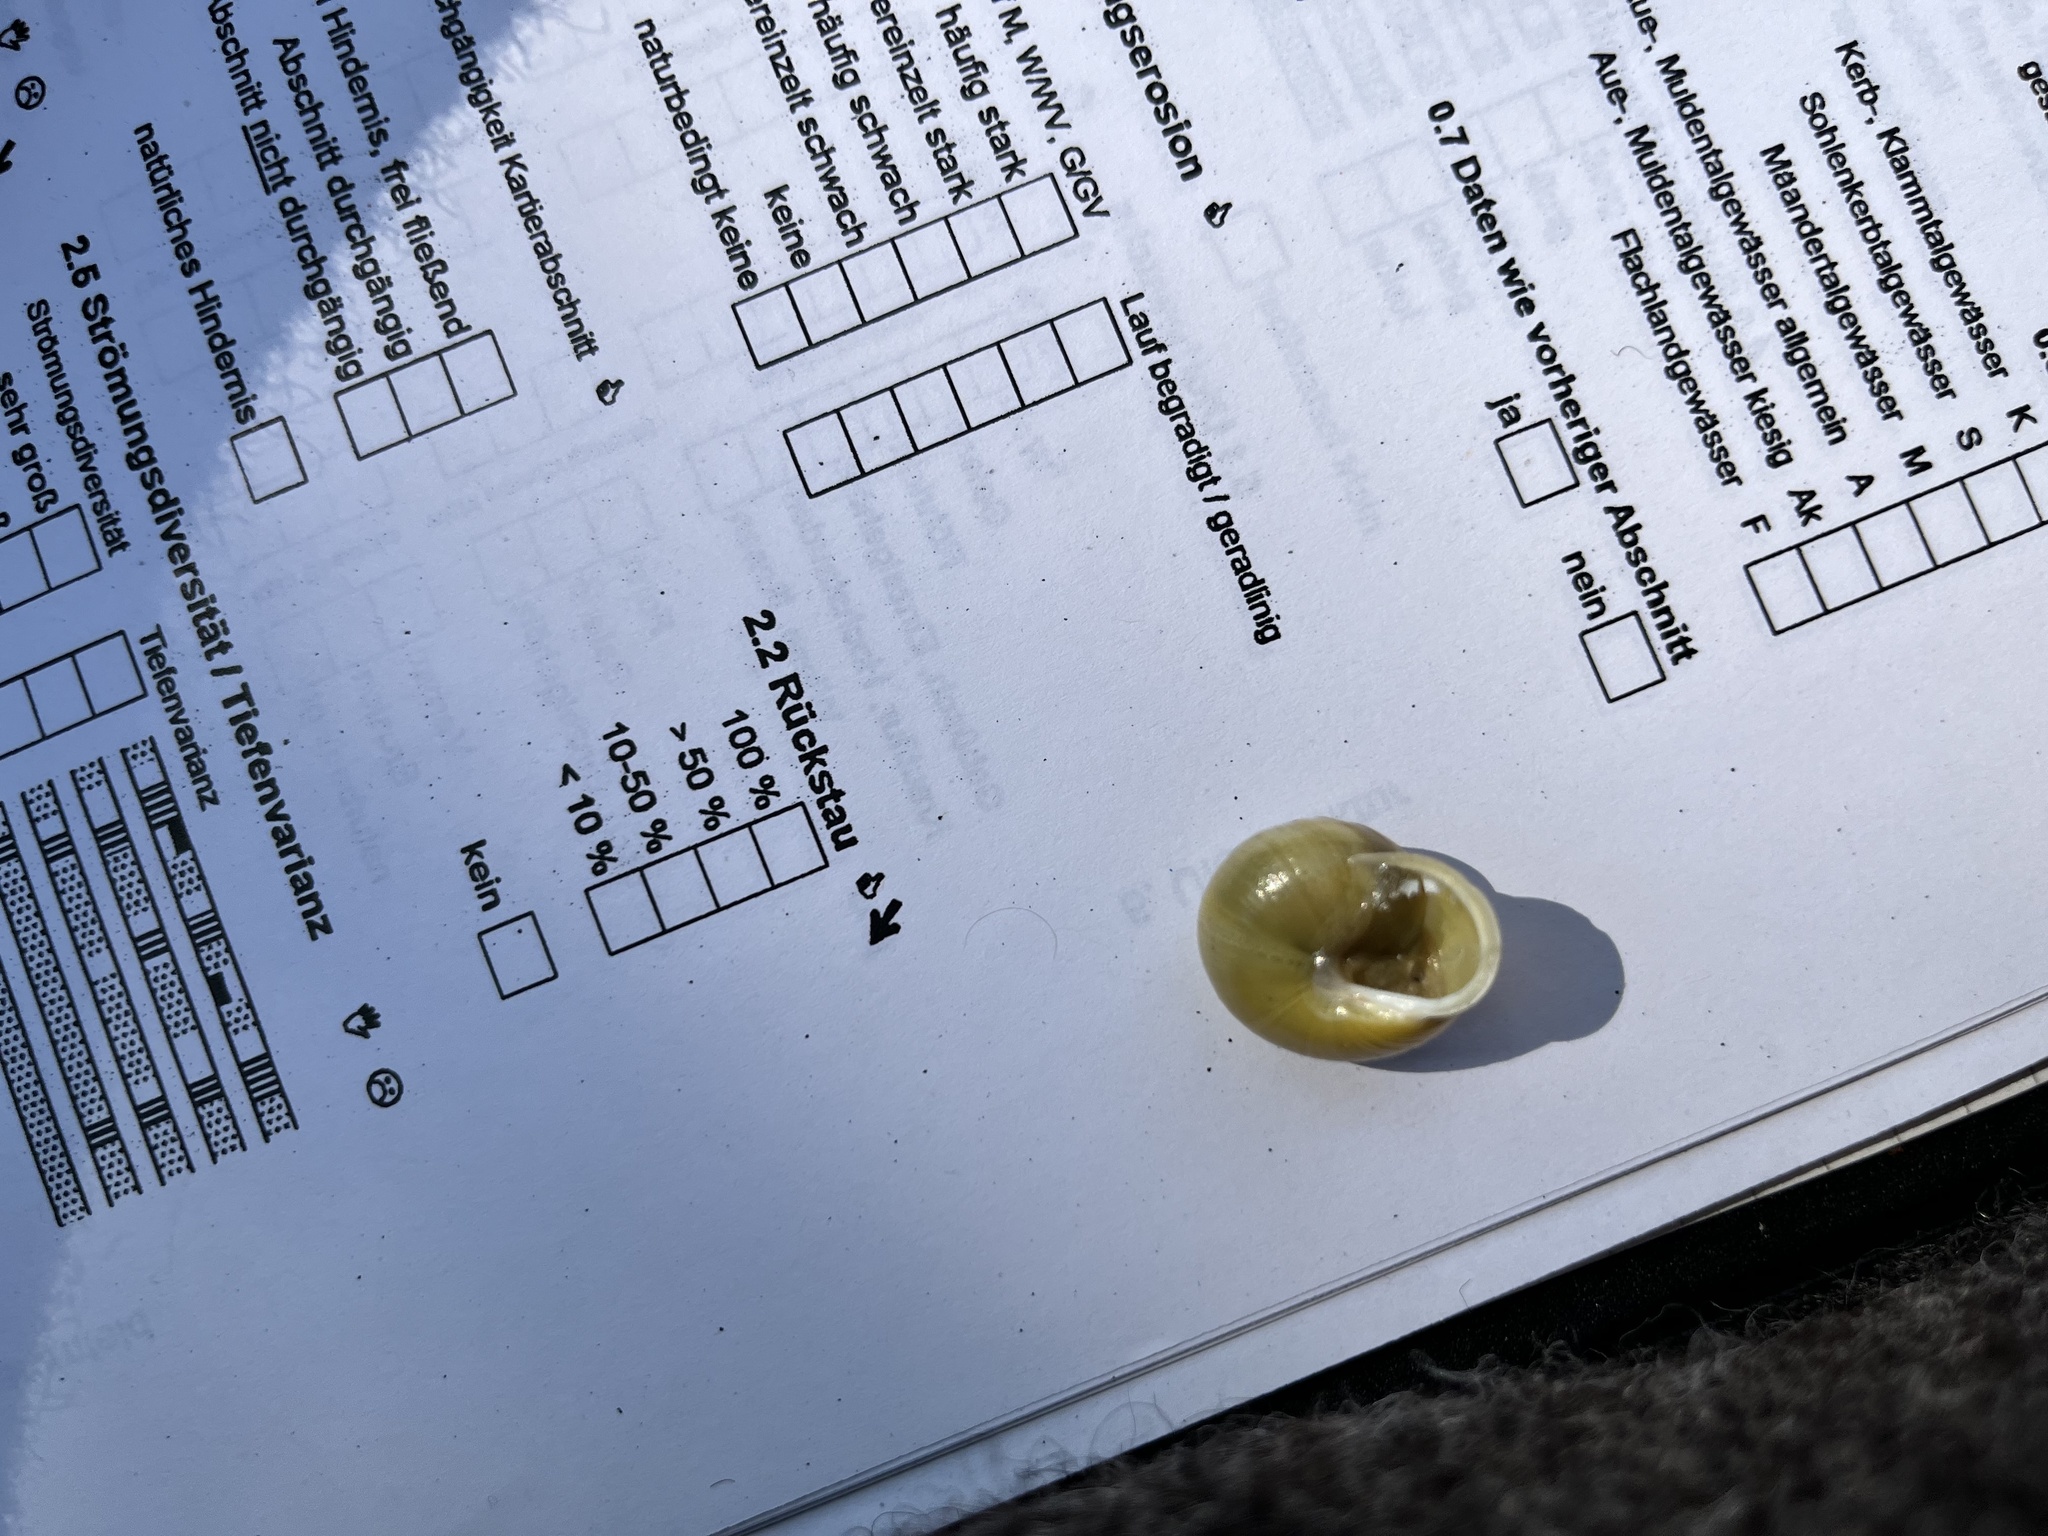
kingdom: Animalia
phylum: Mollusca
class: Gastropoda
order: Stylommatophora
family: Helicidae
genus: Cepaea
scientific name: Cepaea hortensis
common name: White-lip gardensnail
